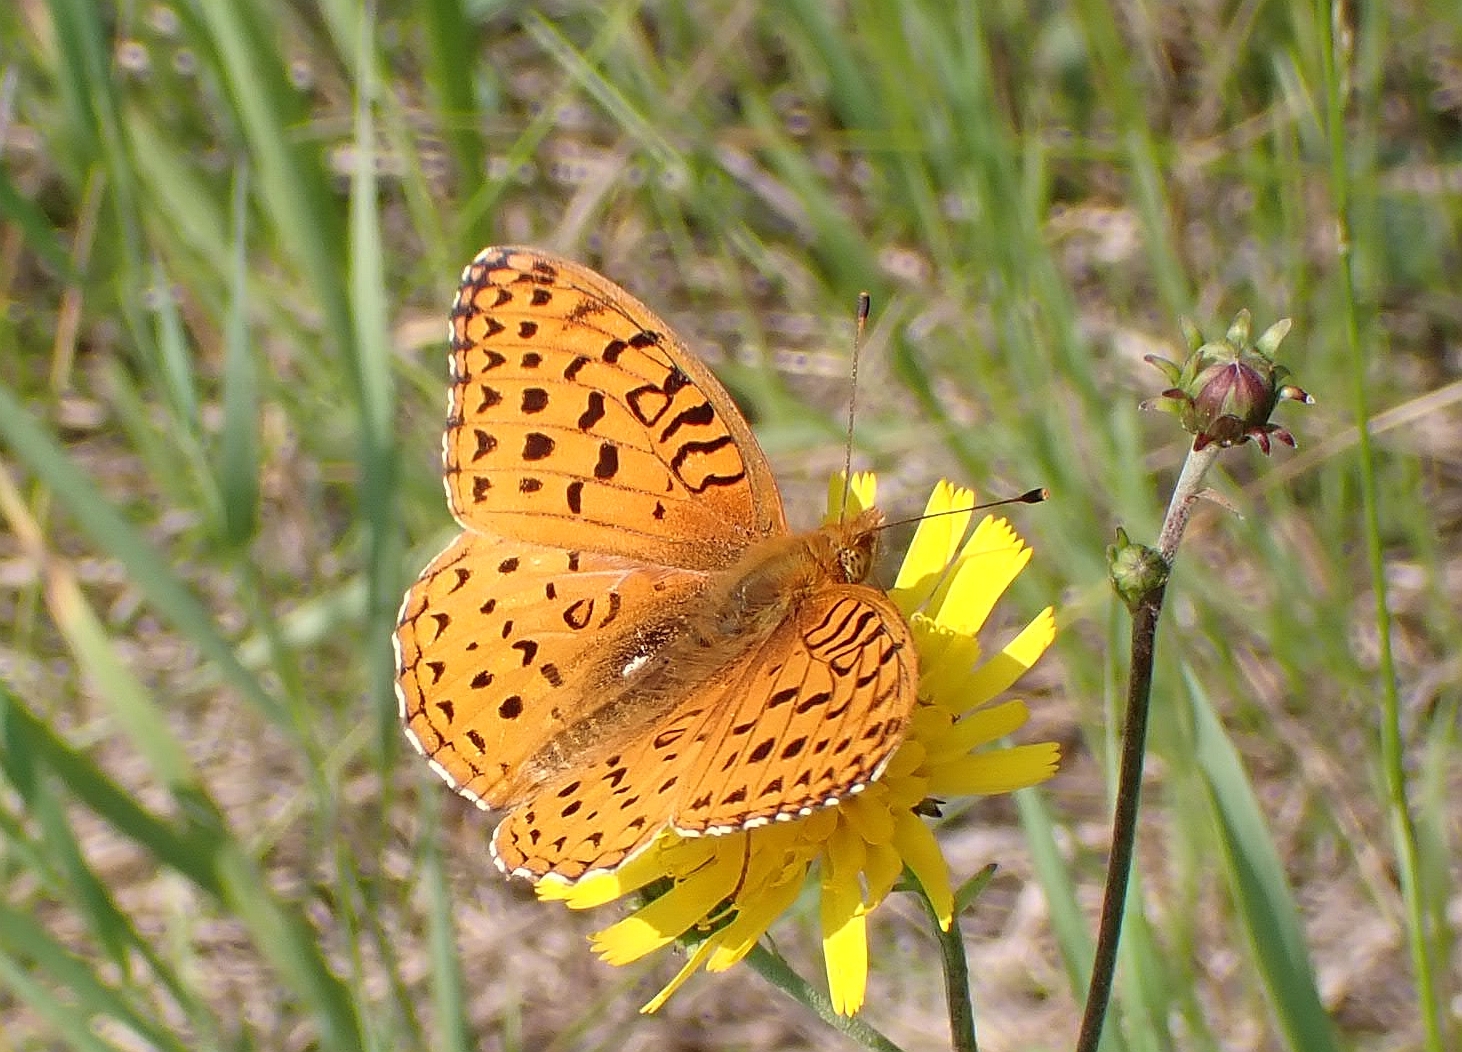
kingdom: Animalia
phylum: Arthropoda
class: Insecta
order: Lepidoptera
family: Nymphalidae
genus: Speyeria
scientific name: Speyeria aphrodite
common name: Aphrodite friitllary
